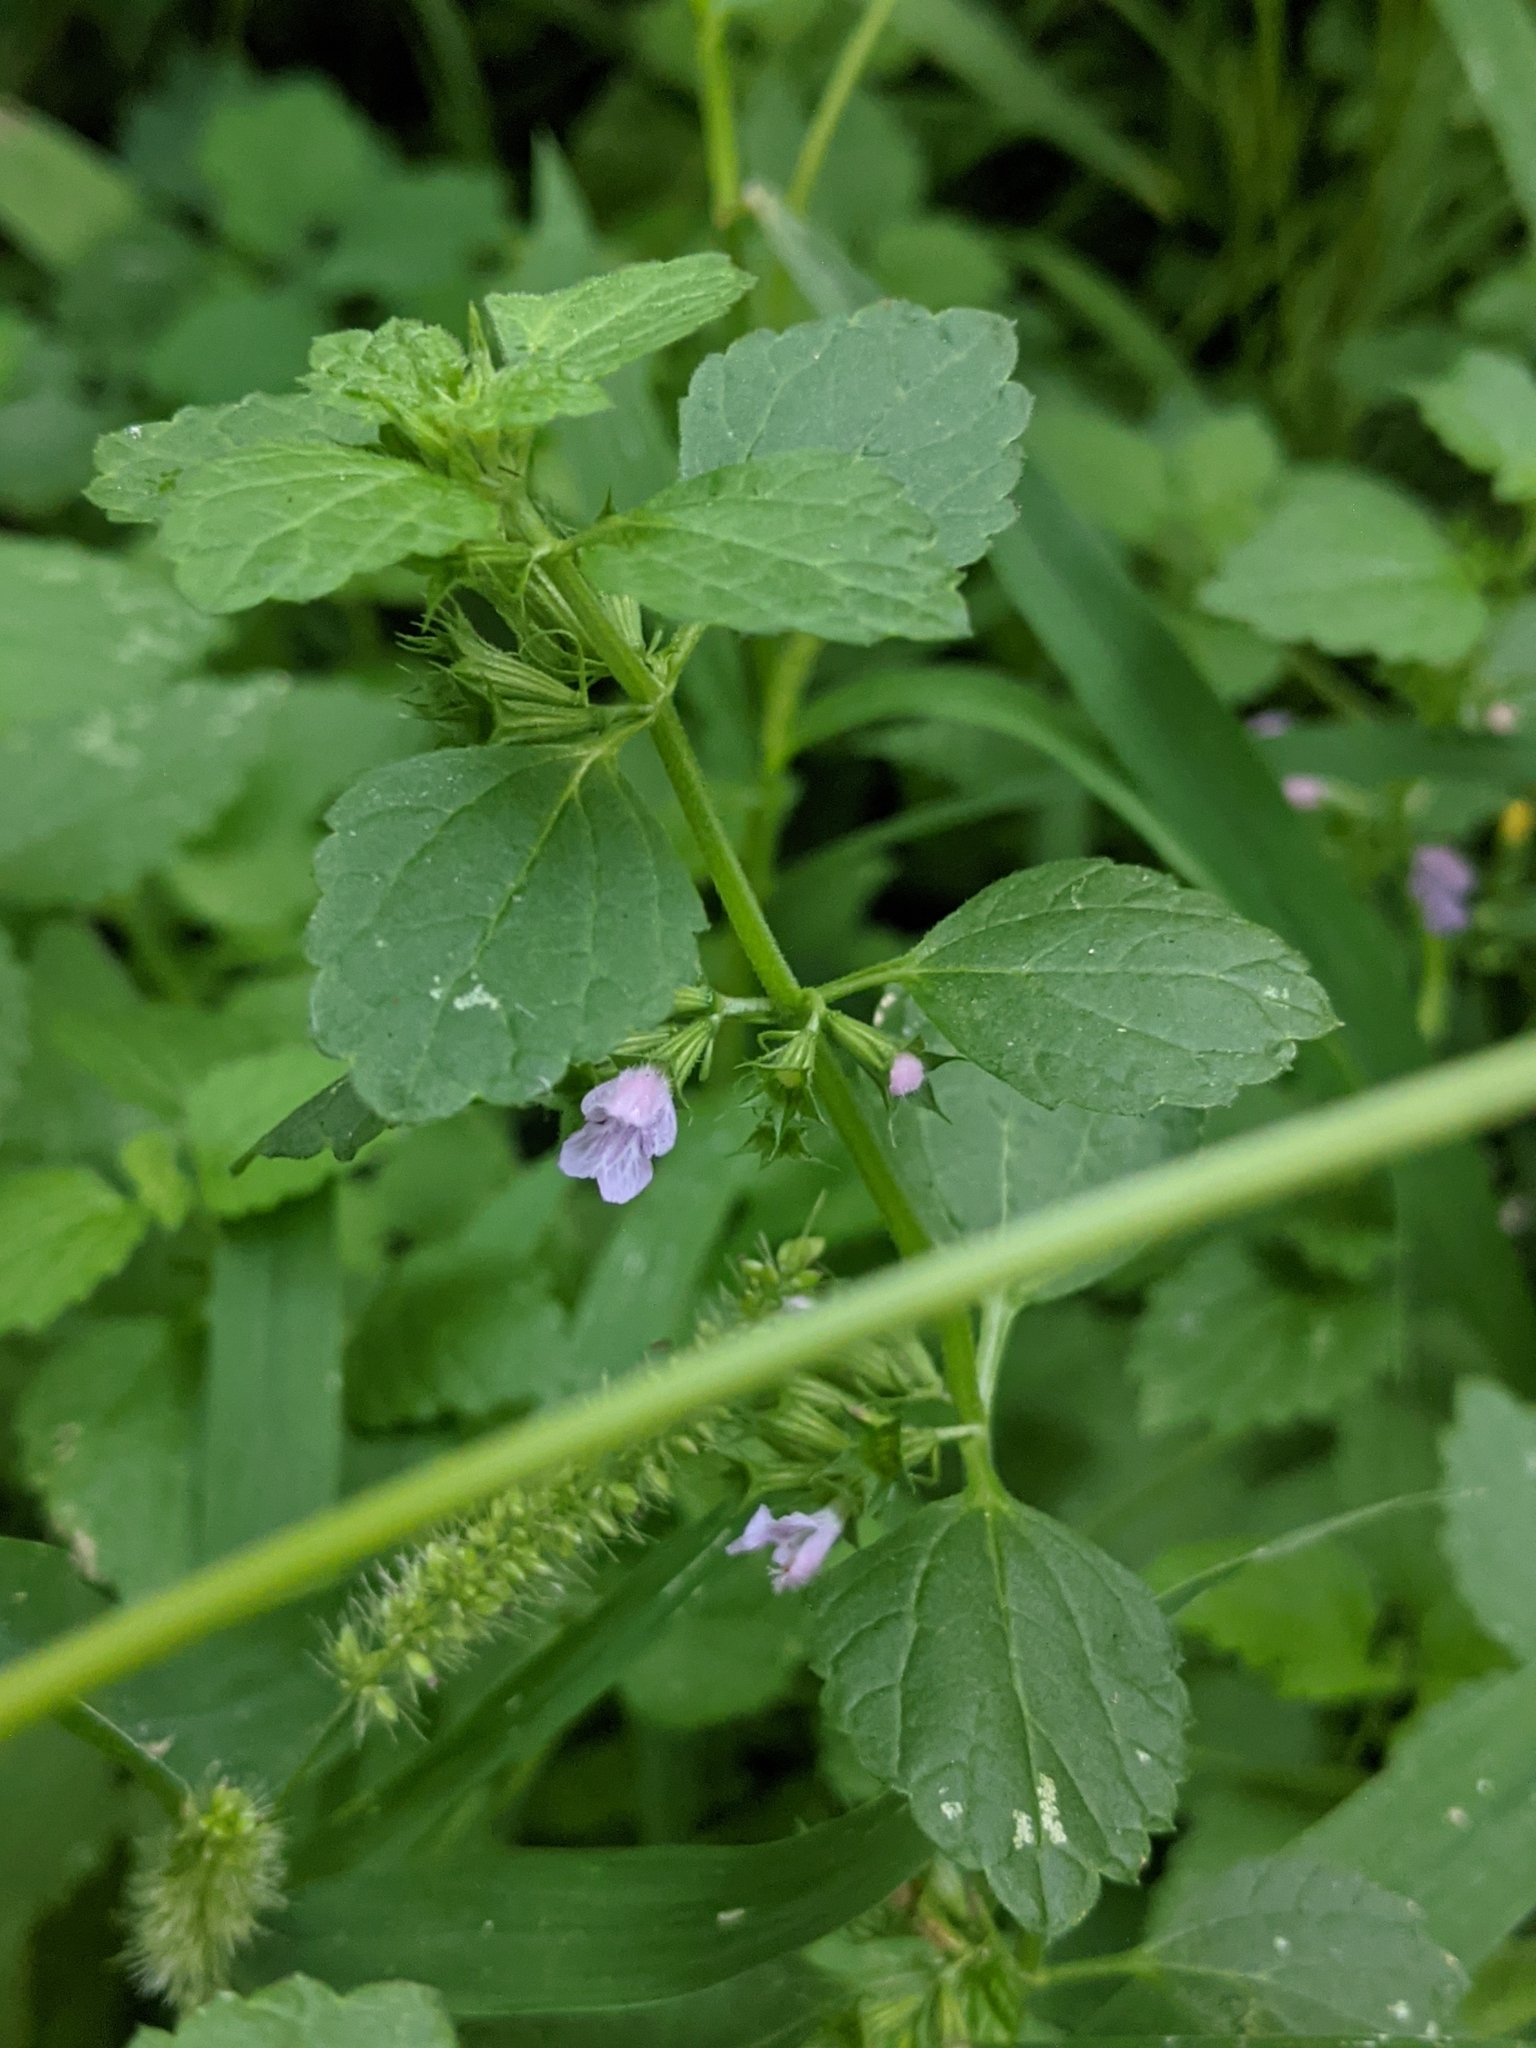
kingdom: Plantae
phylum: Tracheophyta
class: Magnoliopsida
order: Lamiales
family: Lamiaceae
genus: Ballota
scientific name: Ballota nigra
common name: Black horehound
